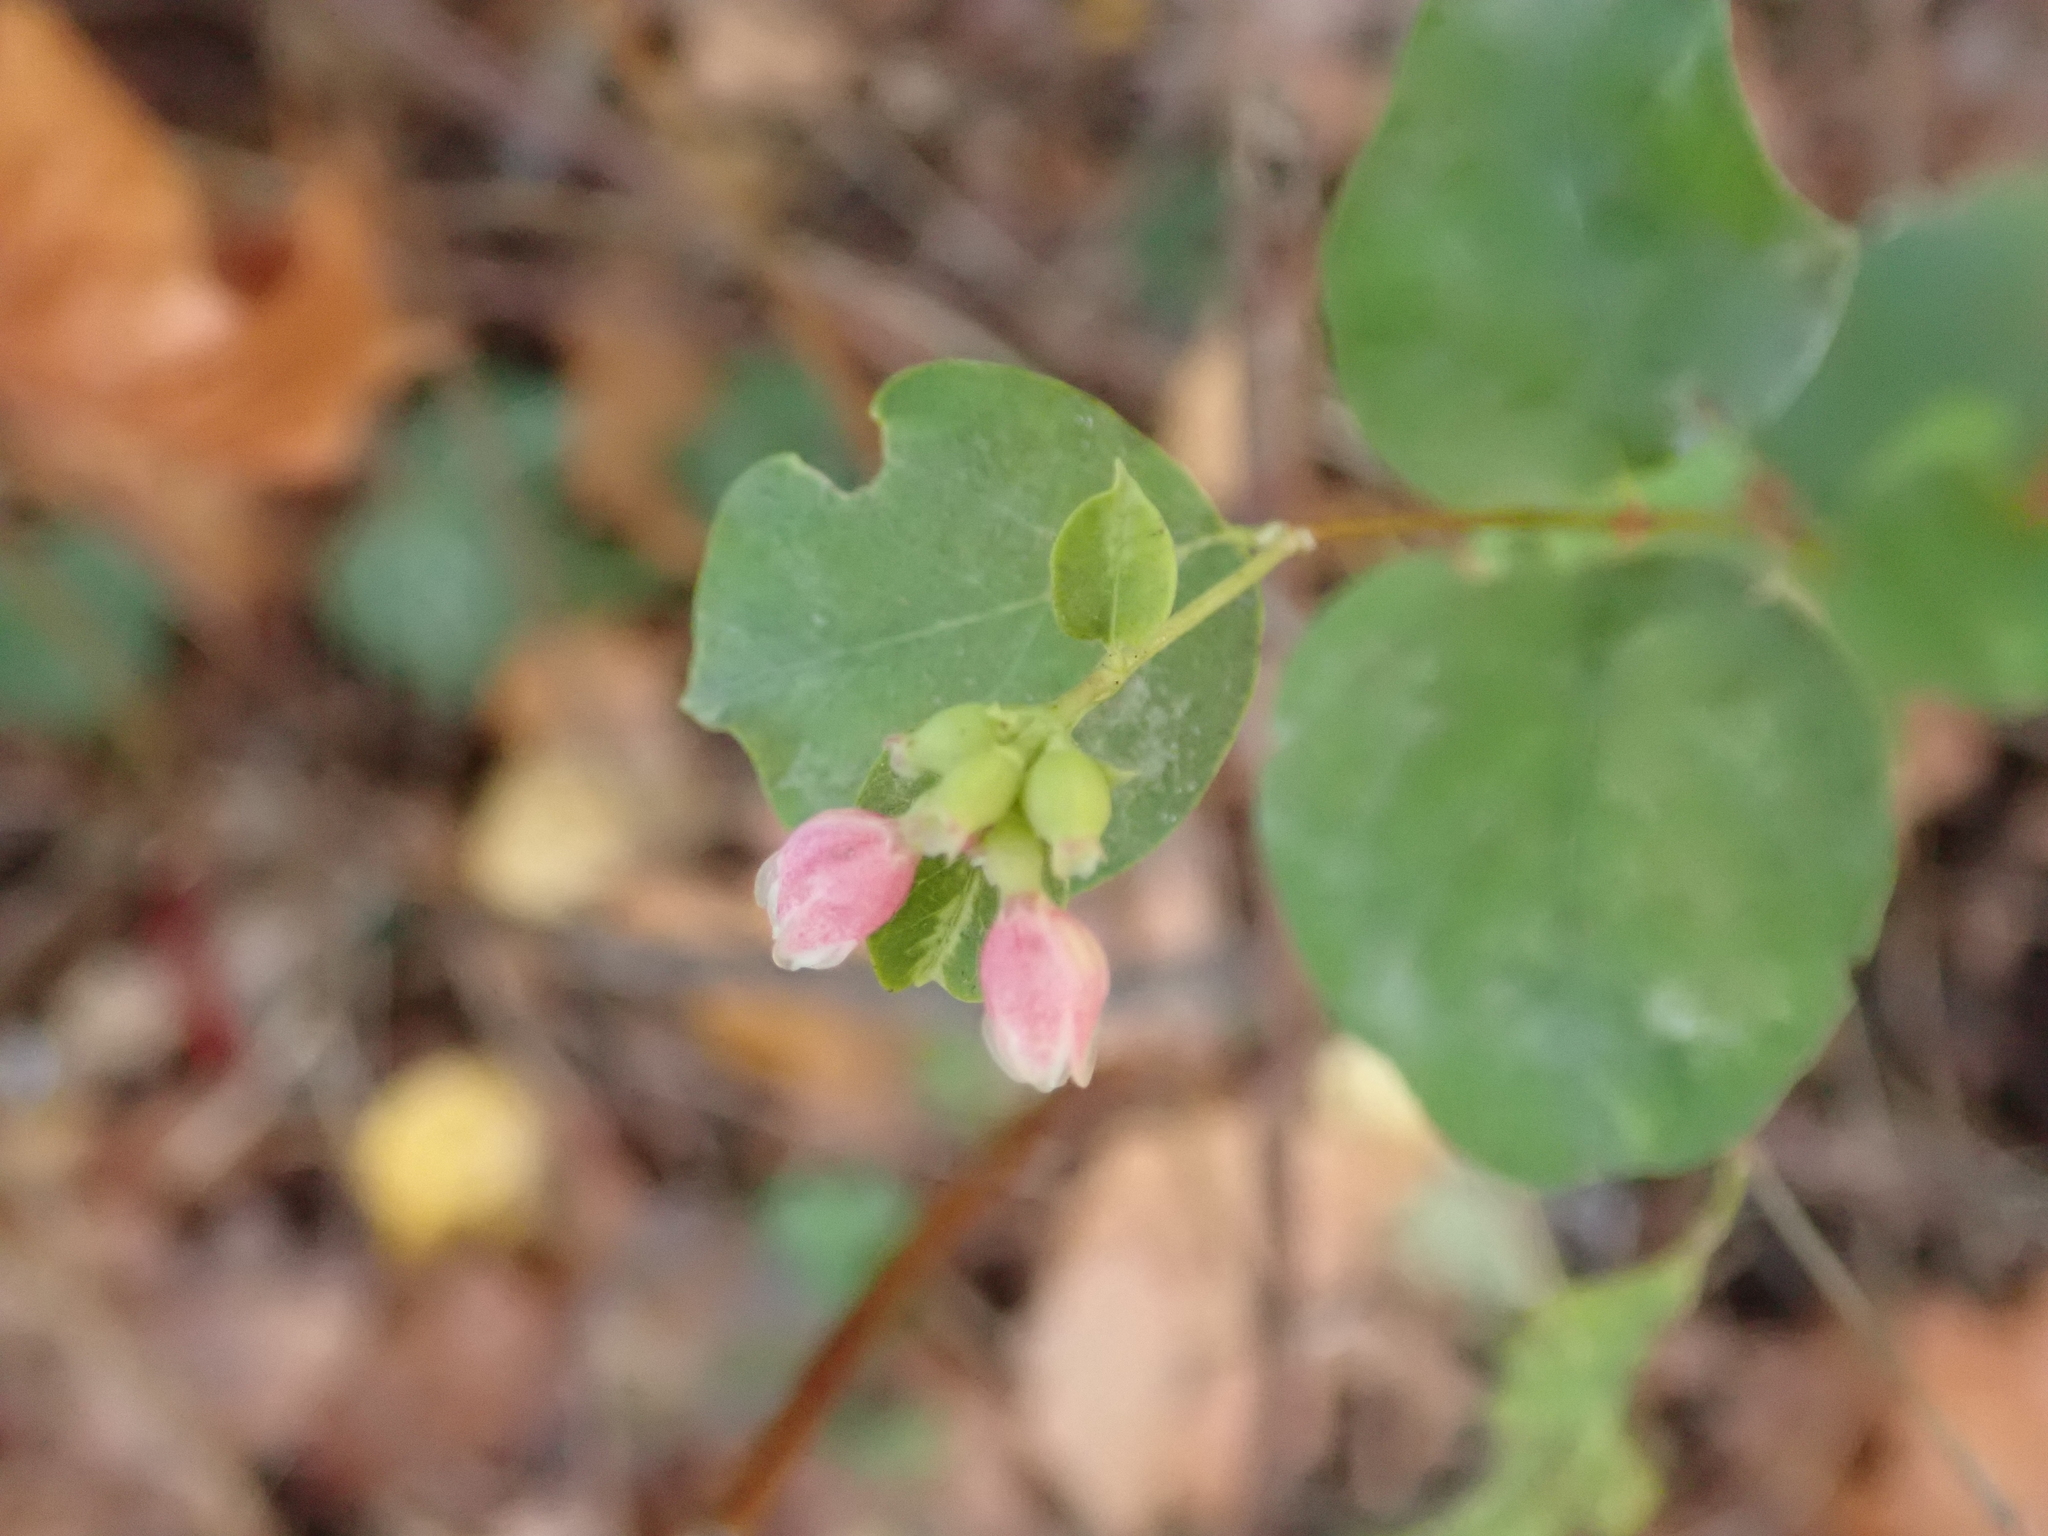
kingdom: Plantae
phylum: Tracheophyta
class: Magnoliopsida
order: Dipsacales
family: Caprifoliaceae
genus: Symphoricarpos
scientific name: Symphoricarpos albus
